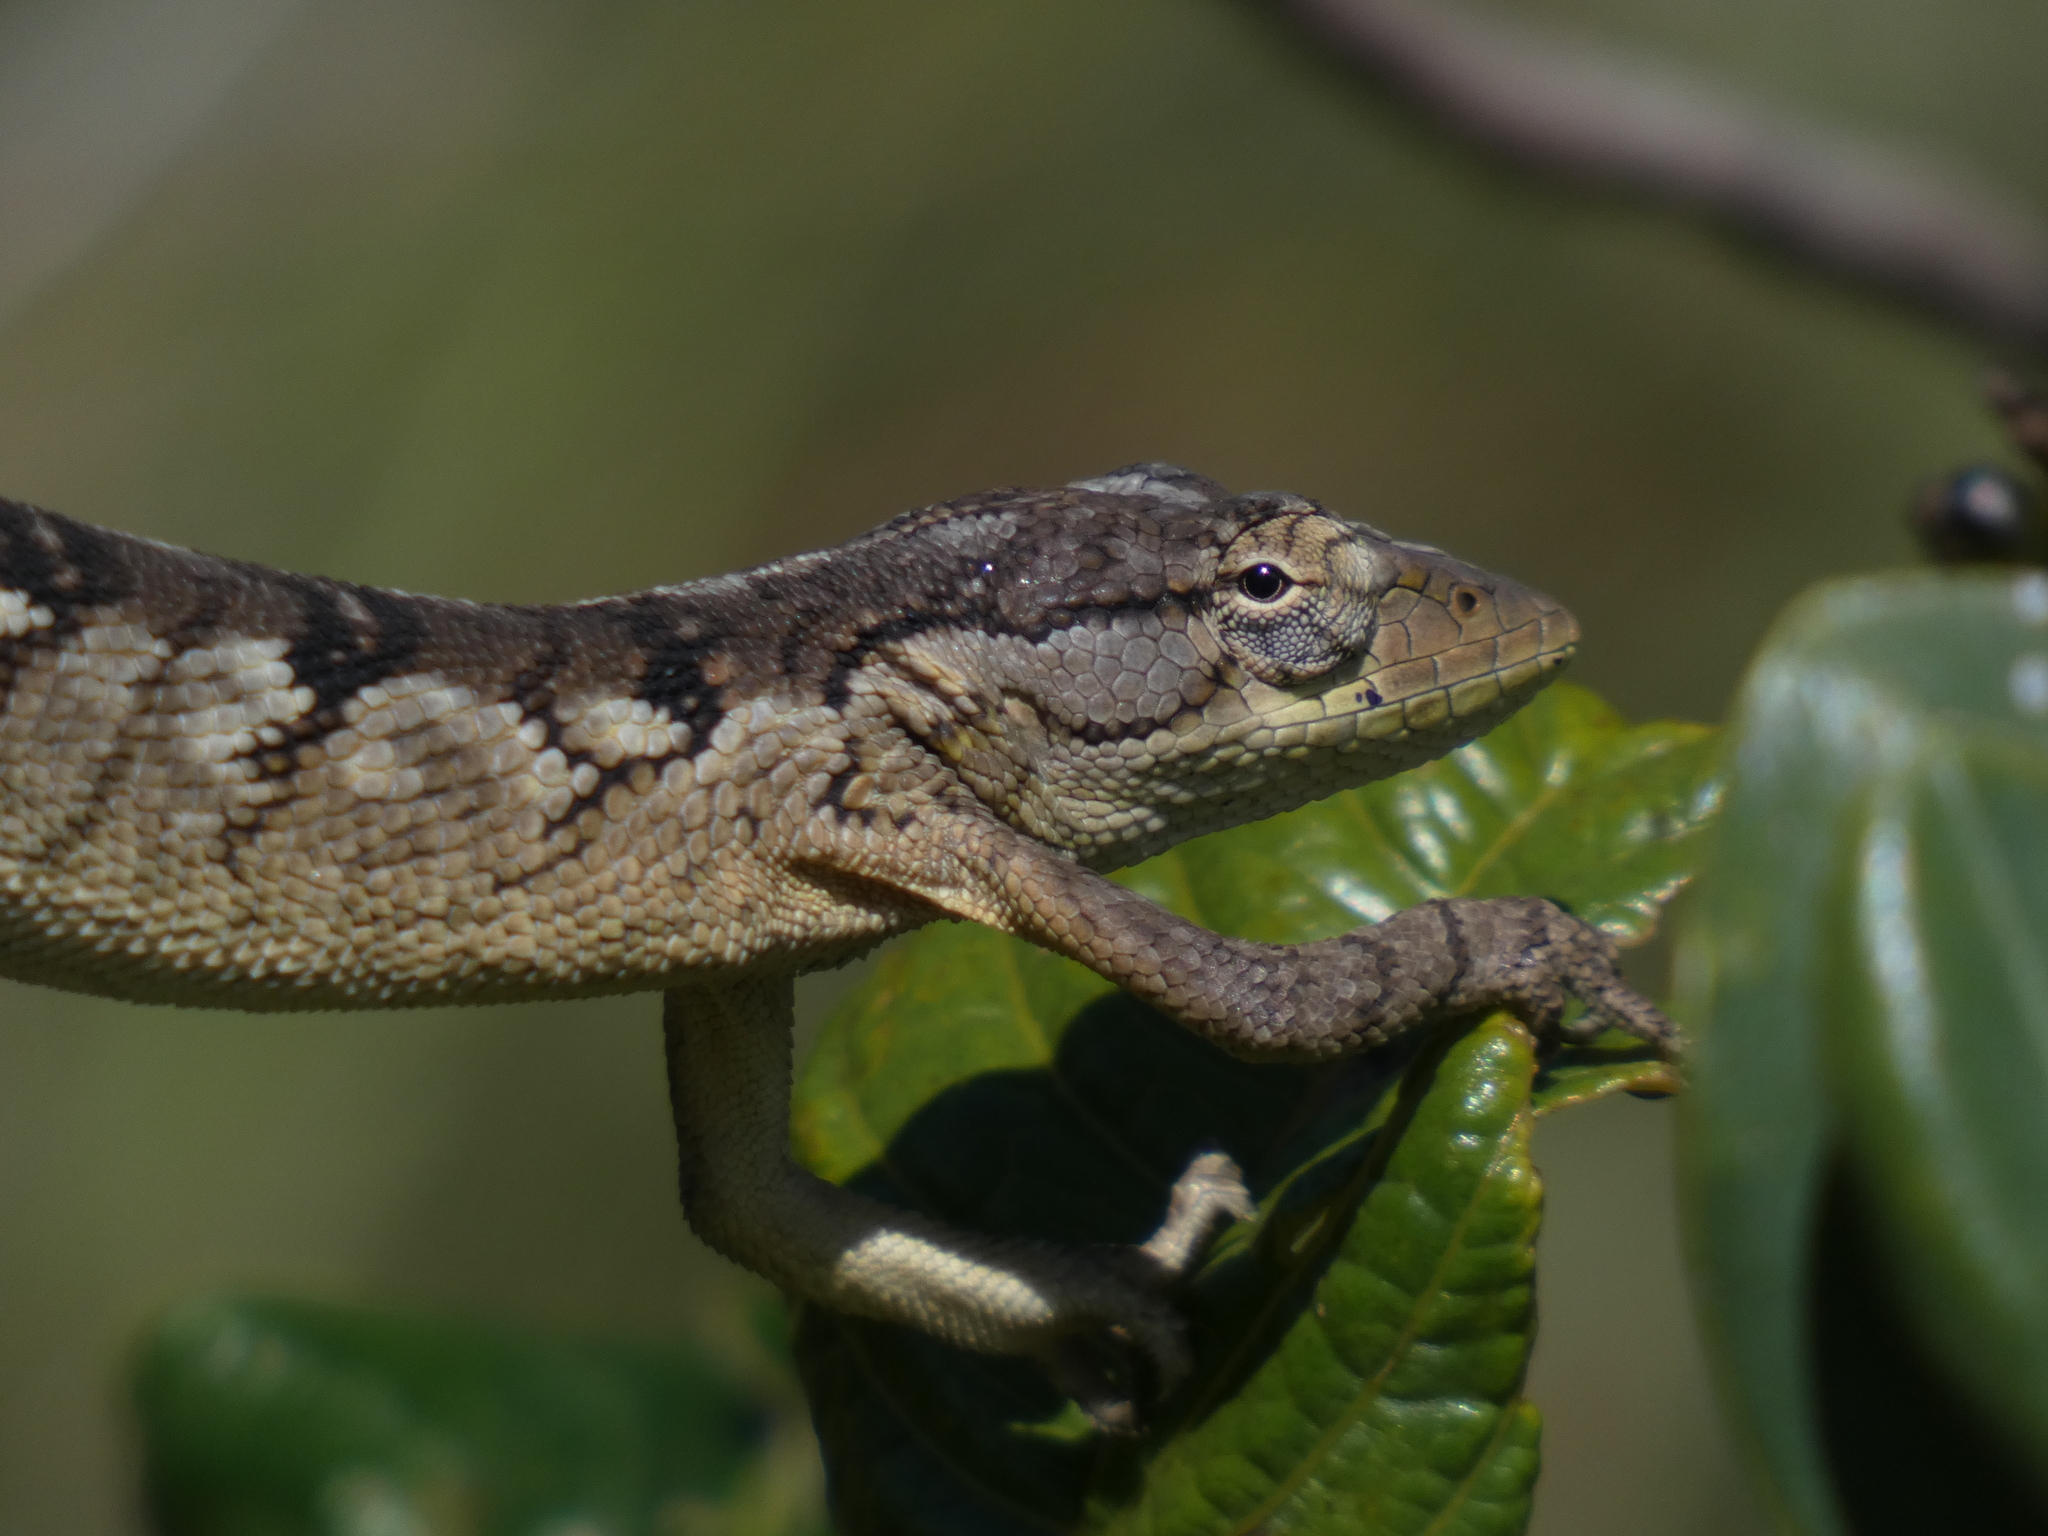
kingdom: Animalia
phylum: Chordata
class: Squamata
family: Polychrotidae
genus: Polychrus
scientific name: Polychrus acutirostris
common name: Brazilian bush anole
